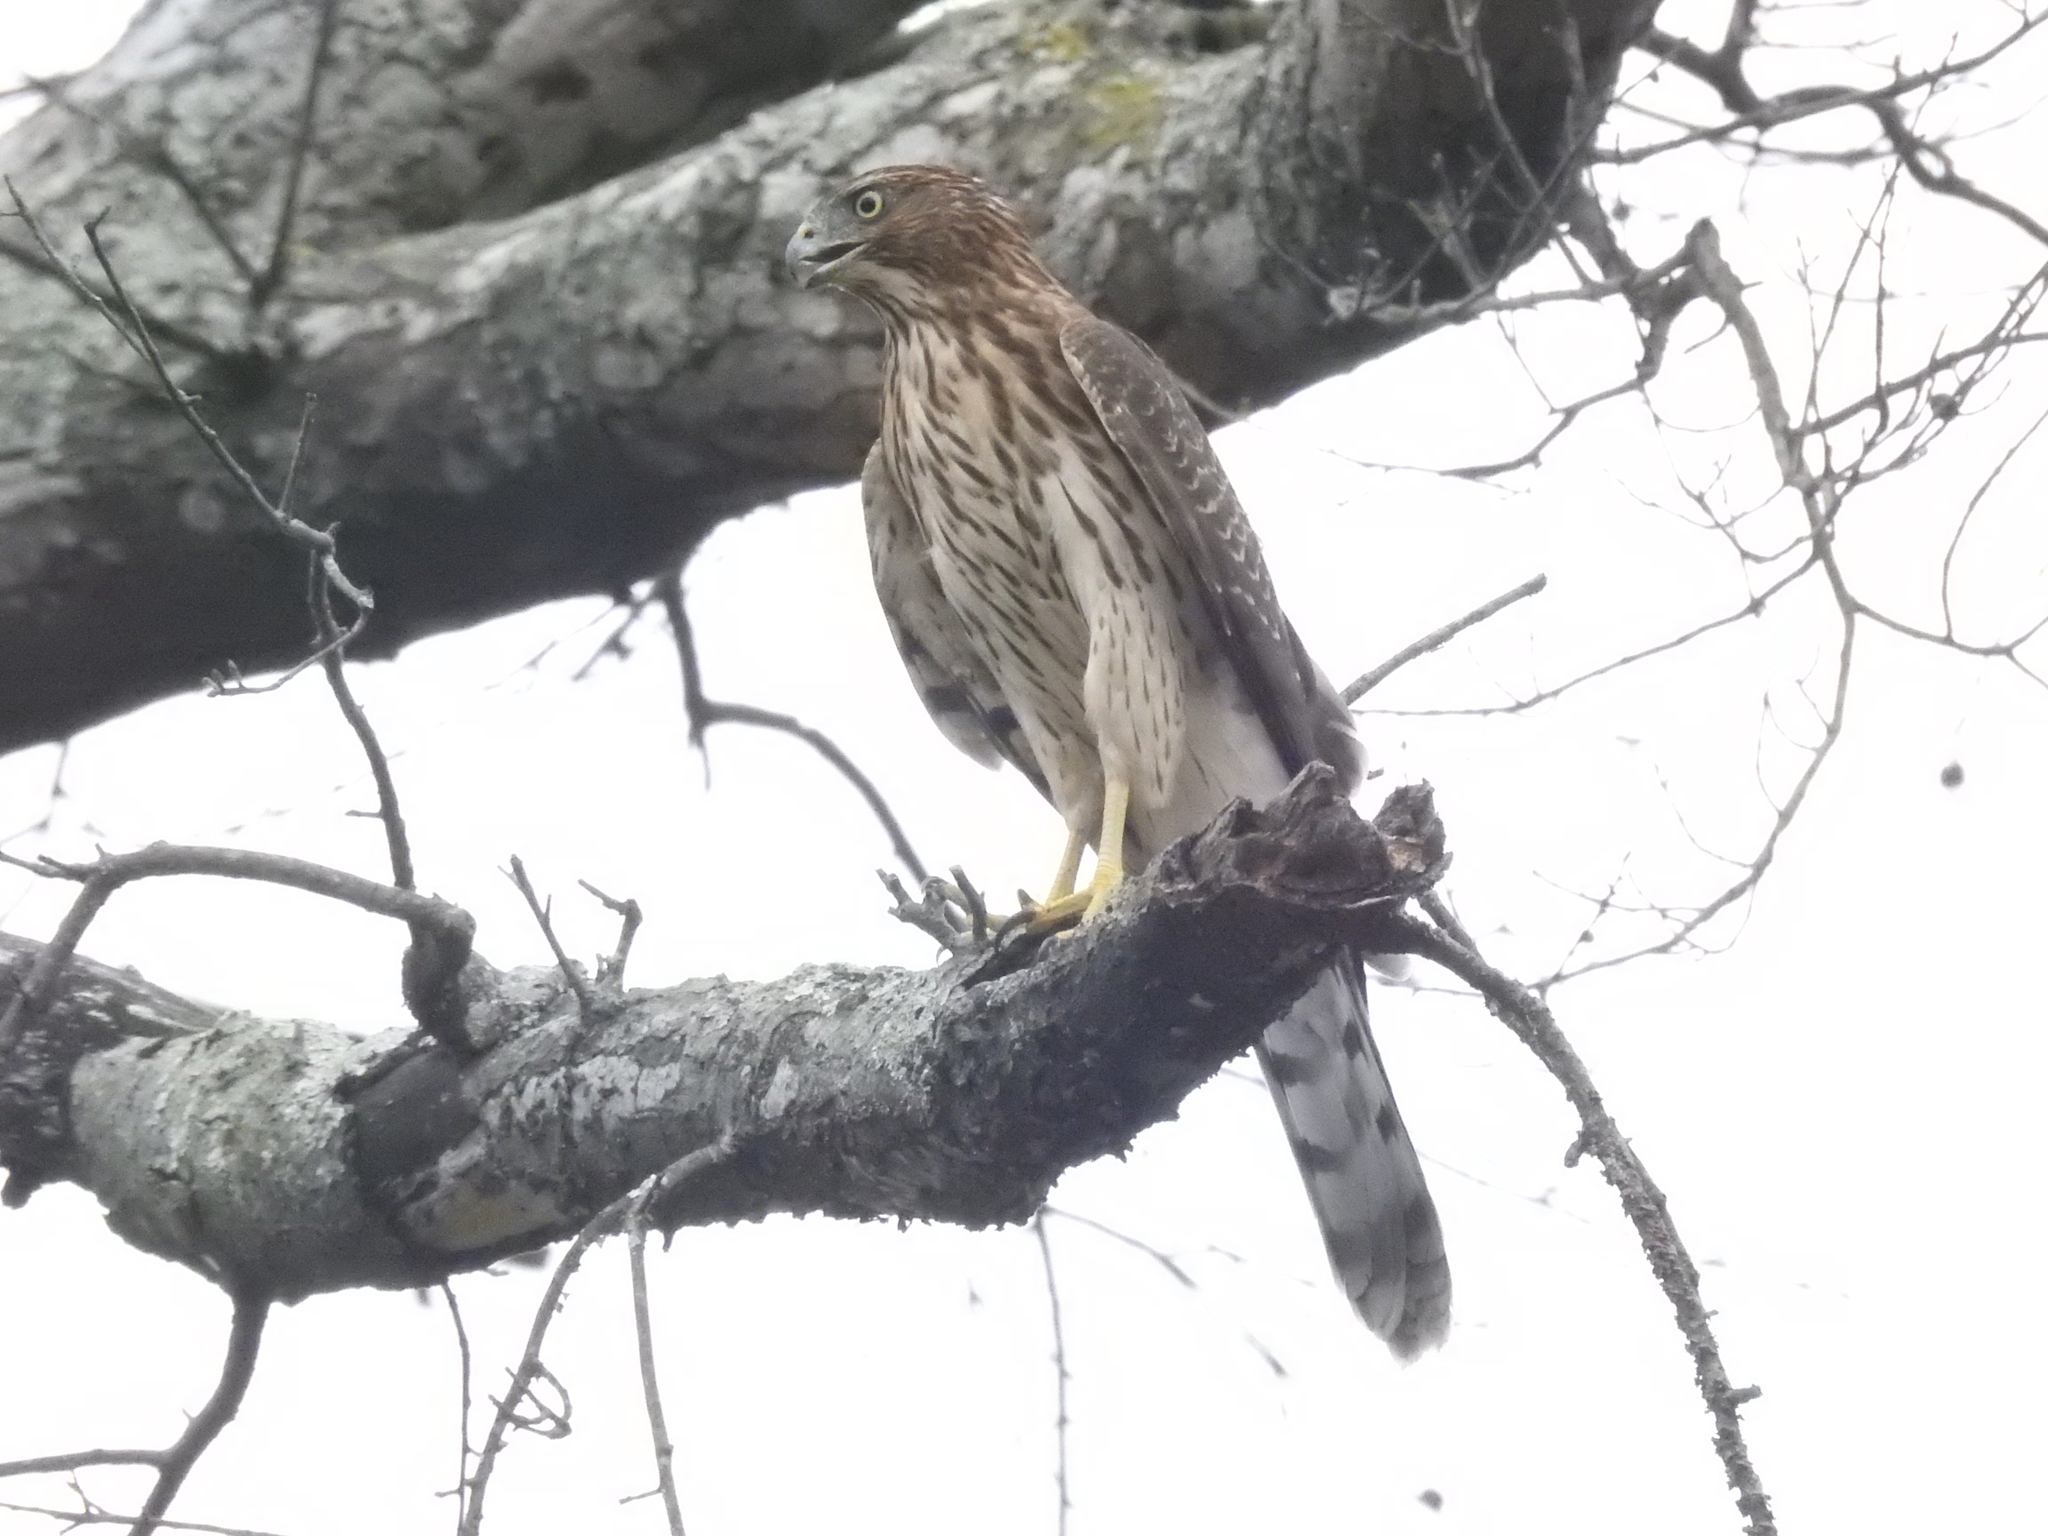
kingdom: Animalia
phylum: Chordata
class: Aves
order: Accipitriformes
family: Accipitridae
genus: Accipiter
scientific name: Accipiter cooperii
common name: Cooper's hawk
